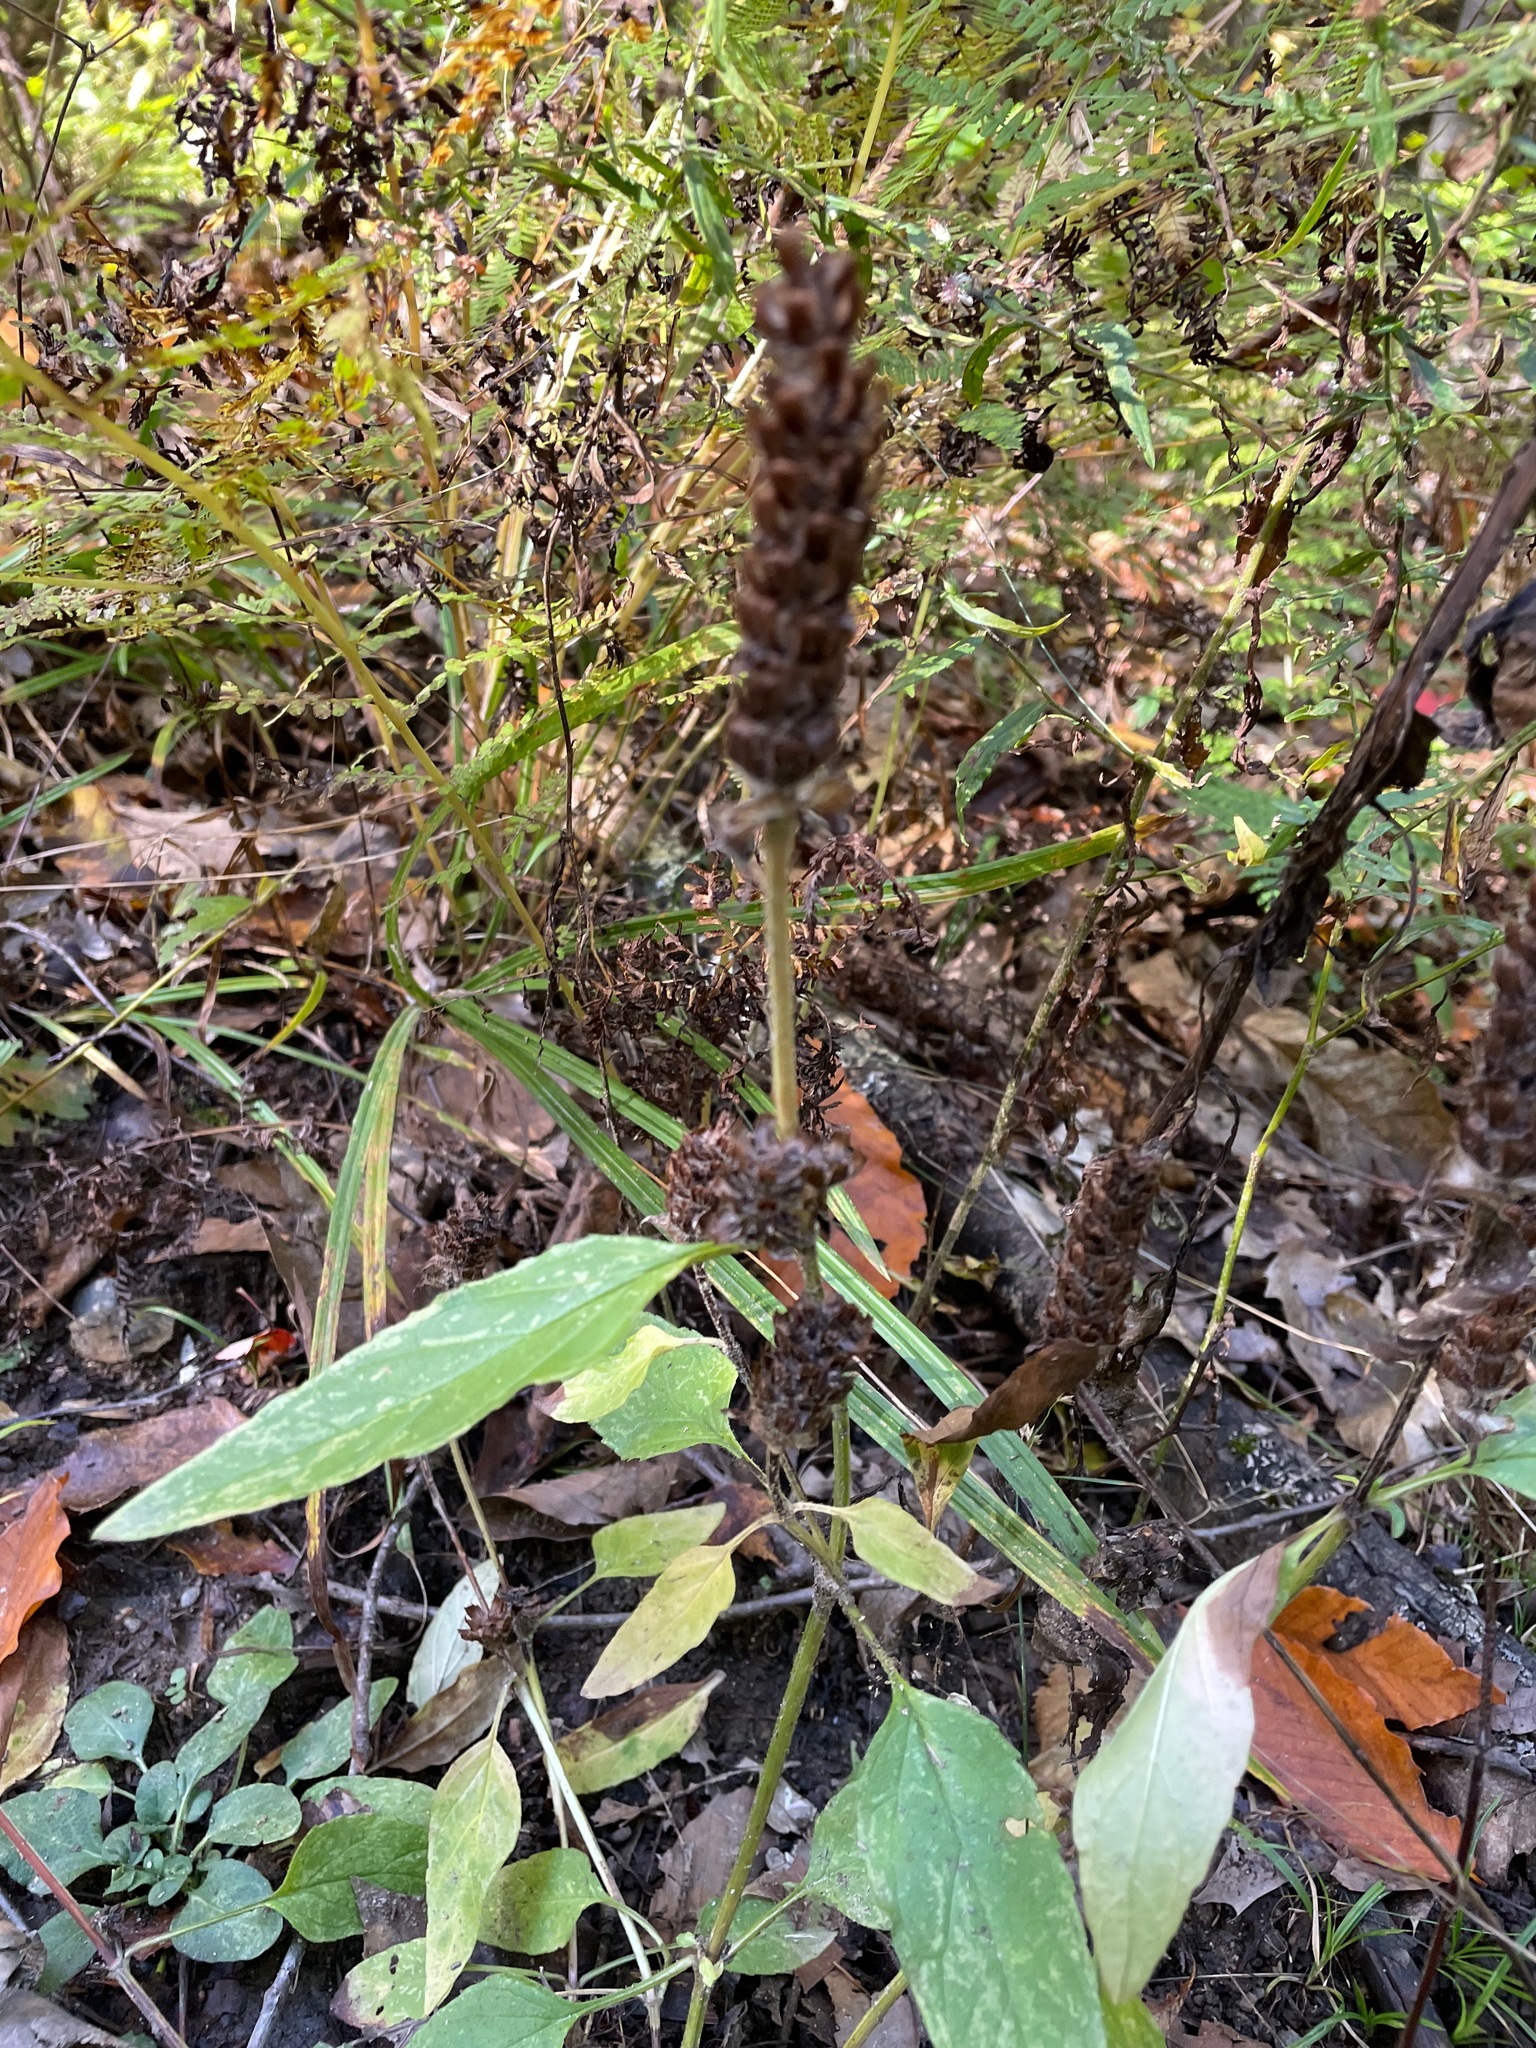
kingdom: Plantae
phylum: Tracheophyta
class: Magnoliopsida
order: Lamiales
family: Lamiaceae
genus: Prunella
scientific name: Prunella vulgaris
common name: Heal-all
